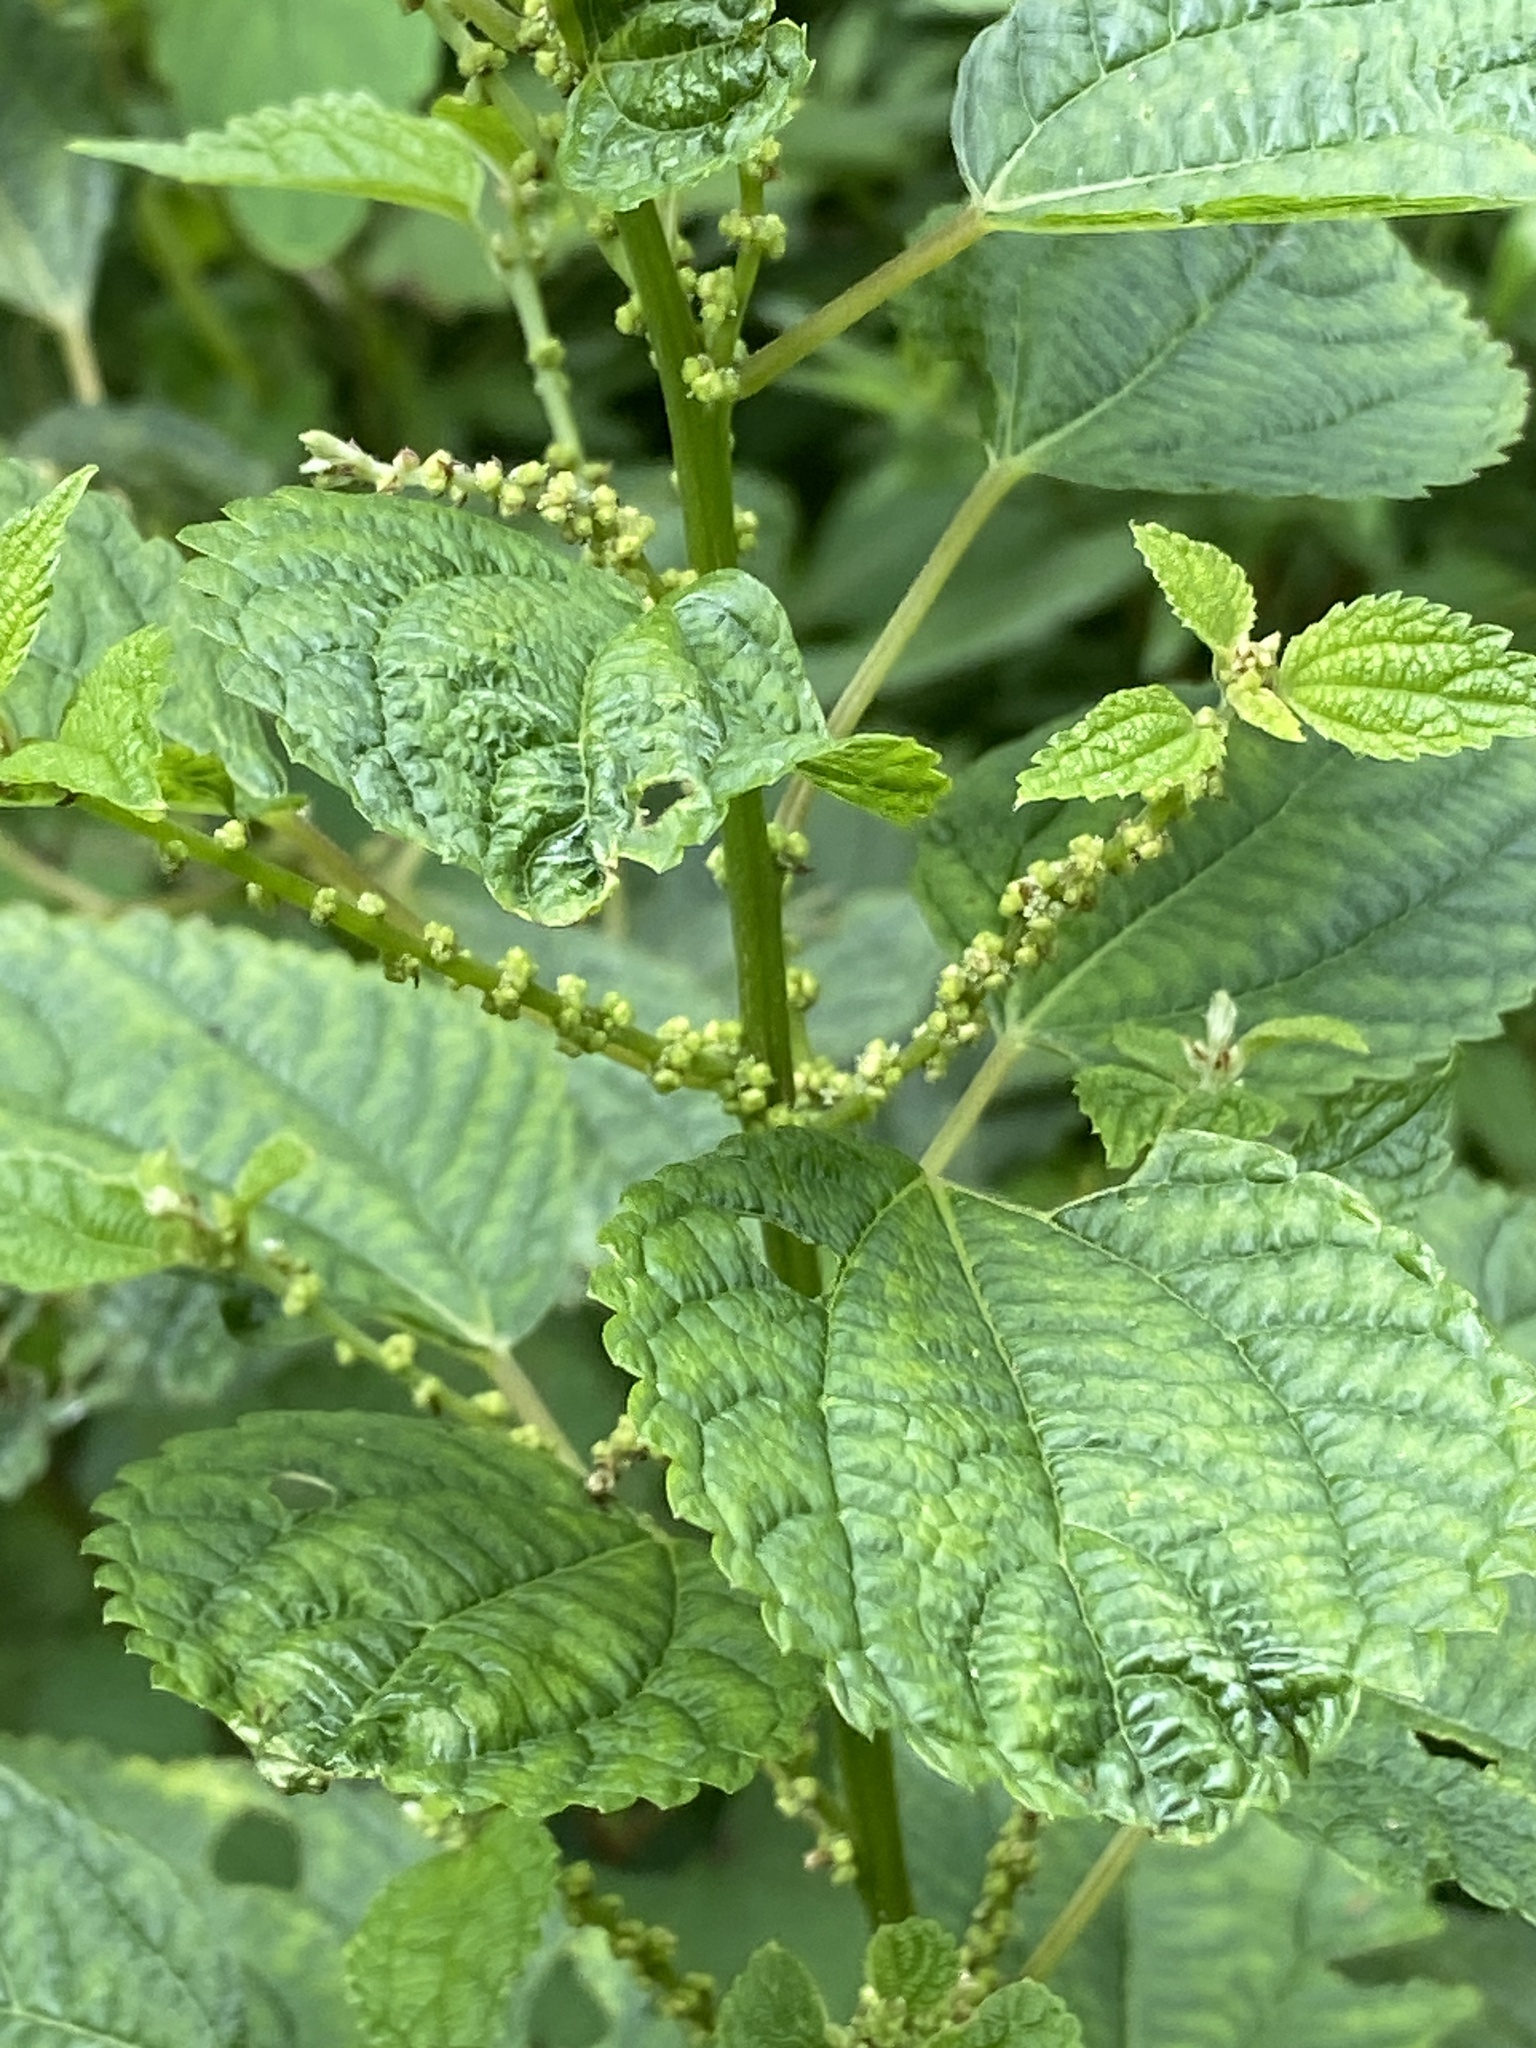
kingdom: Plantae
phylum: Tracheophyta
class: Magnoliopsida
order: Rosales
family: Urticaceae
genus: Boehmeria
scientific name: Boehmeria cylindrica
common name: Bog-hemp
